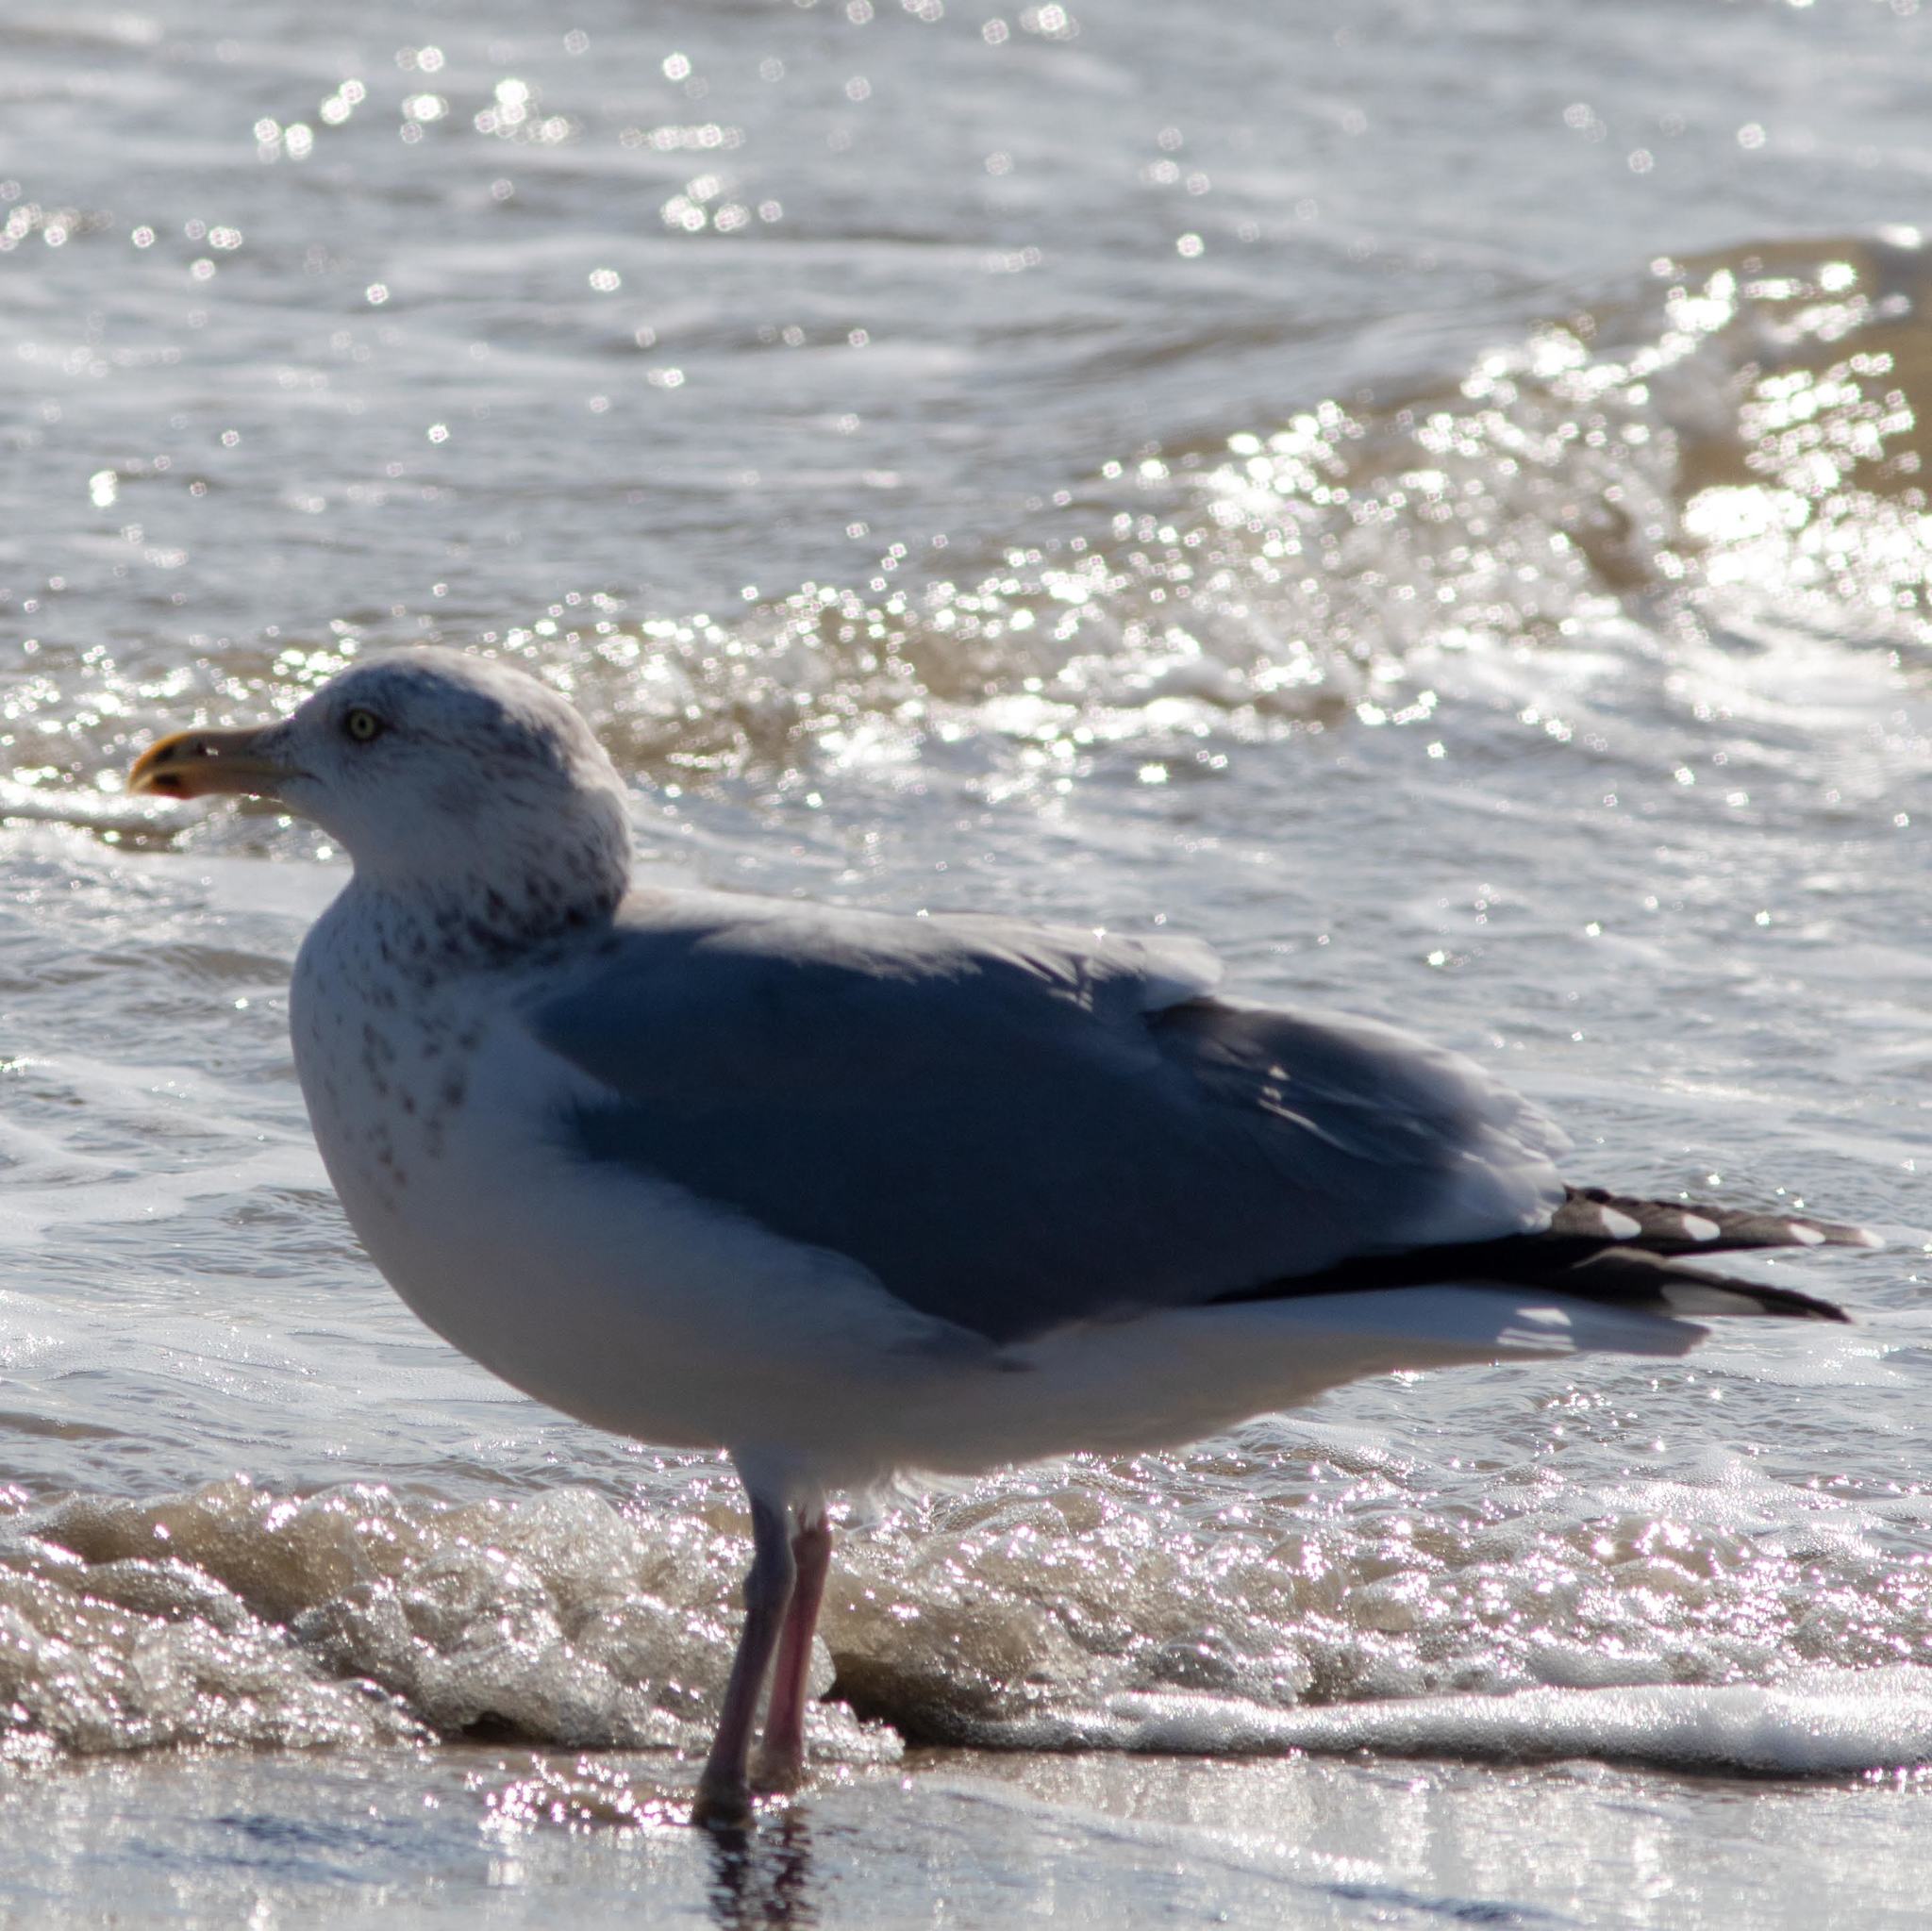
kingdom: Animalia
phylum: Chordata
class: Aves
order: Charadriiformes
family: Laridae
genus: Larus
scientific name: Larus argentatus
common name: Herring gull
